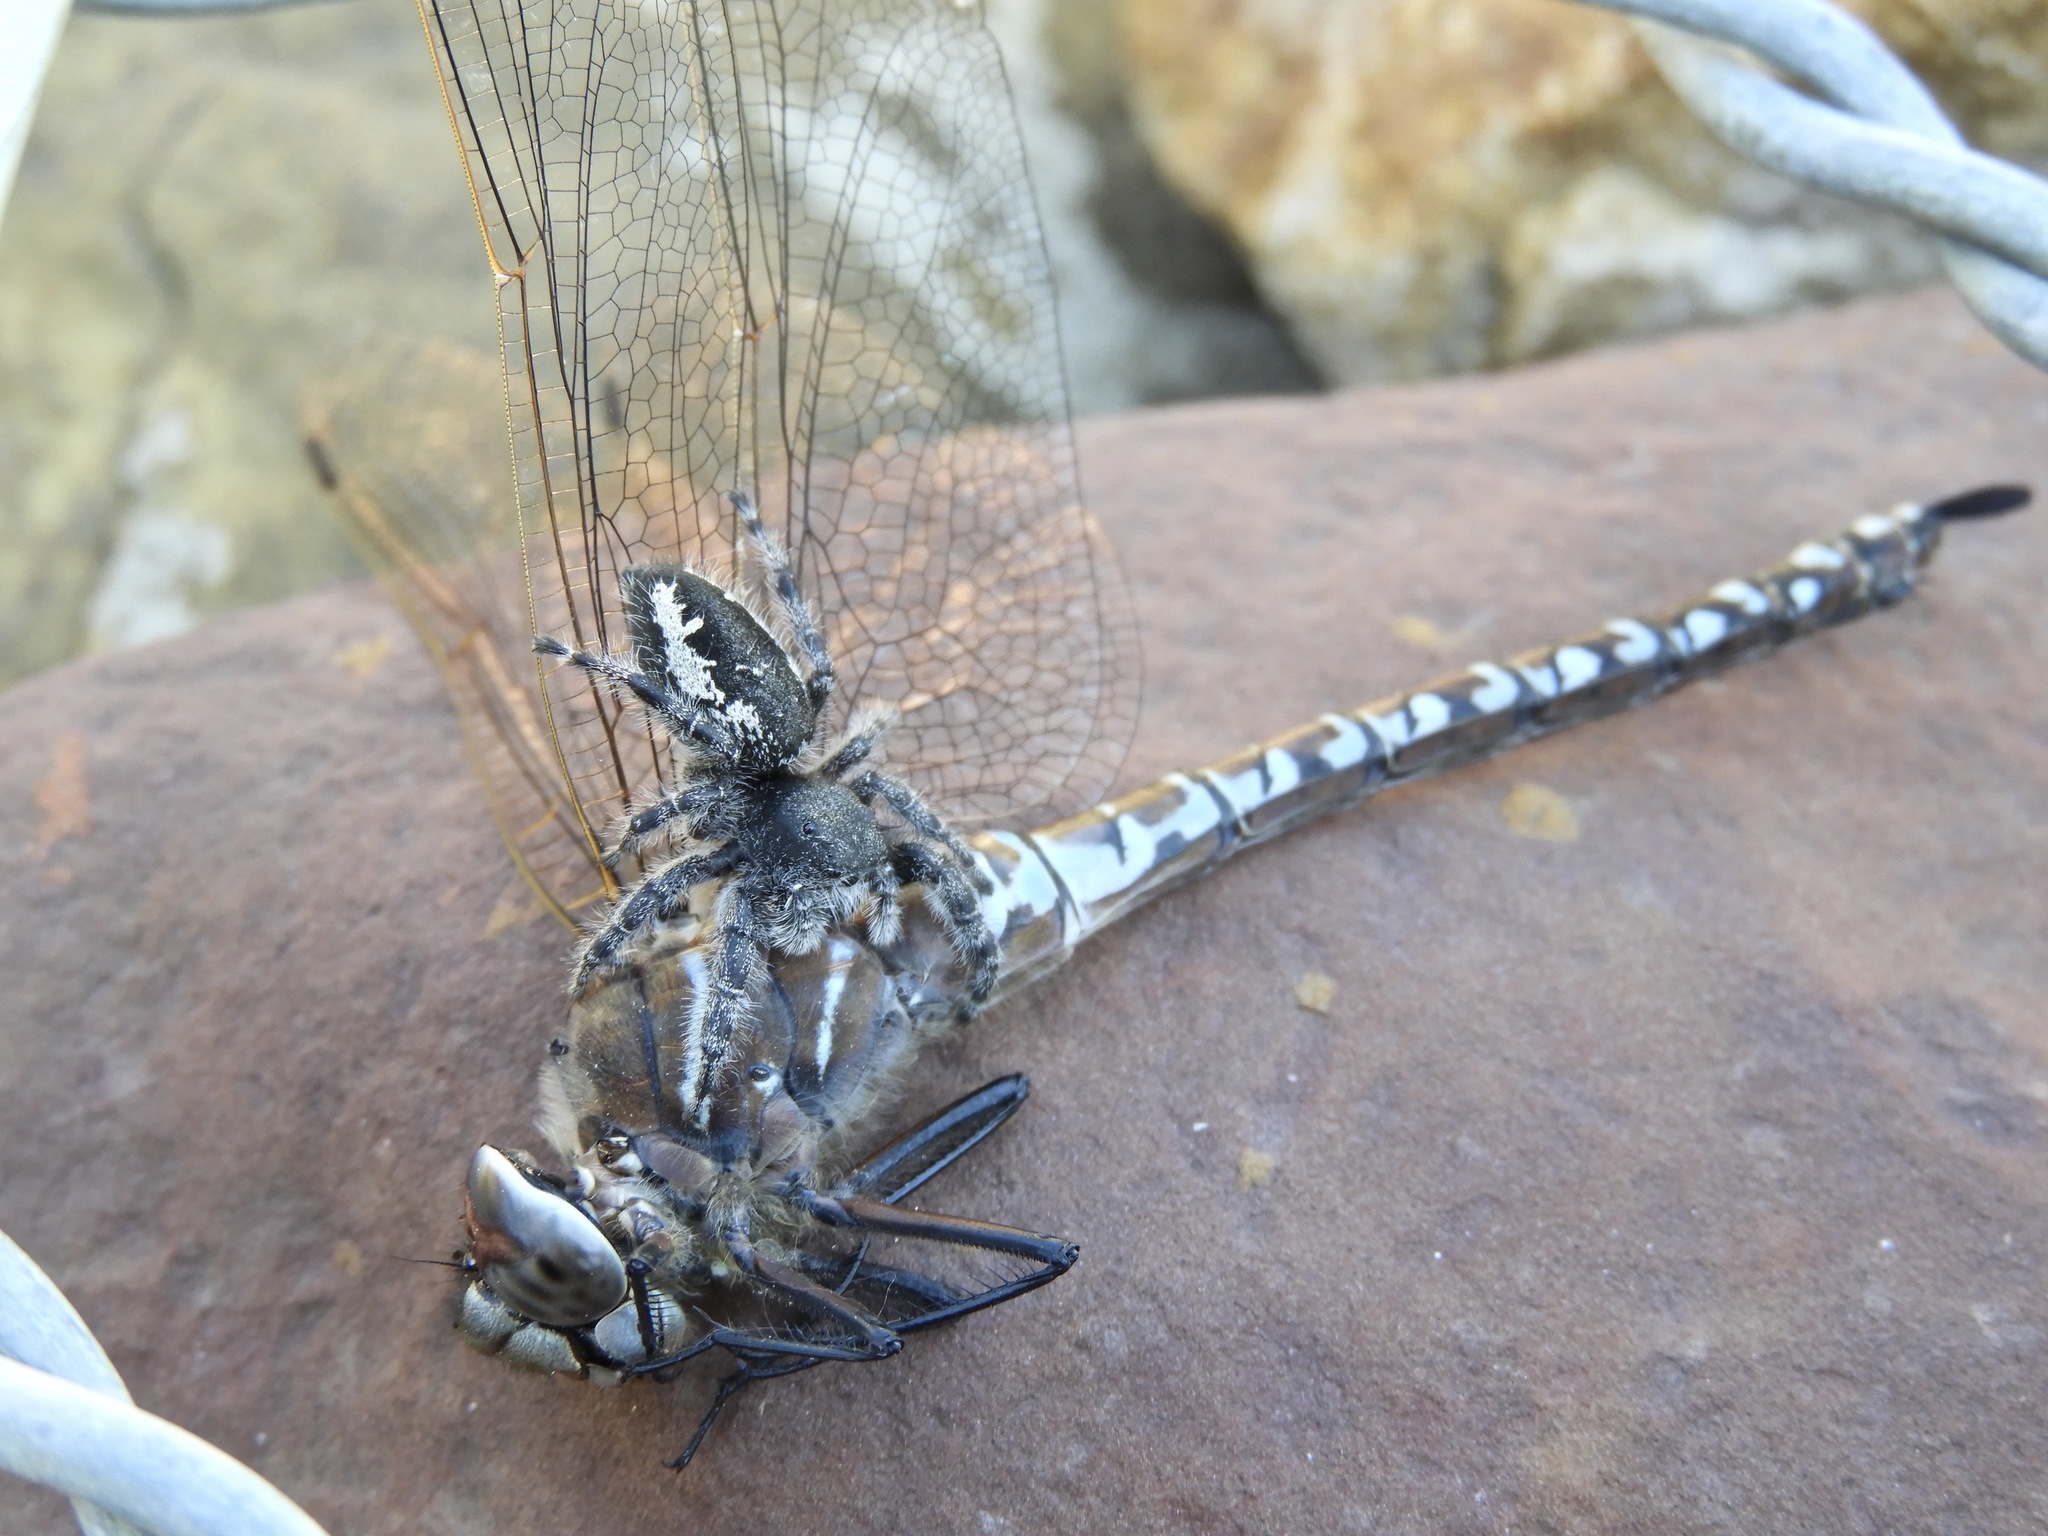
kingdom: Animalia
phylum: Arthropoda
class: Arachnida
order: Araneae
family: Salticidae
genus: Phidippus
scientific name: Phidippus borealis
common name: Boreal tufted jumping spider
